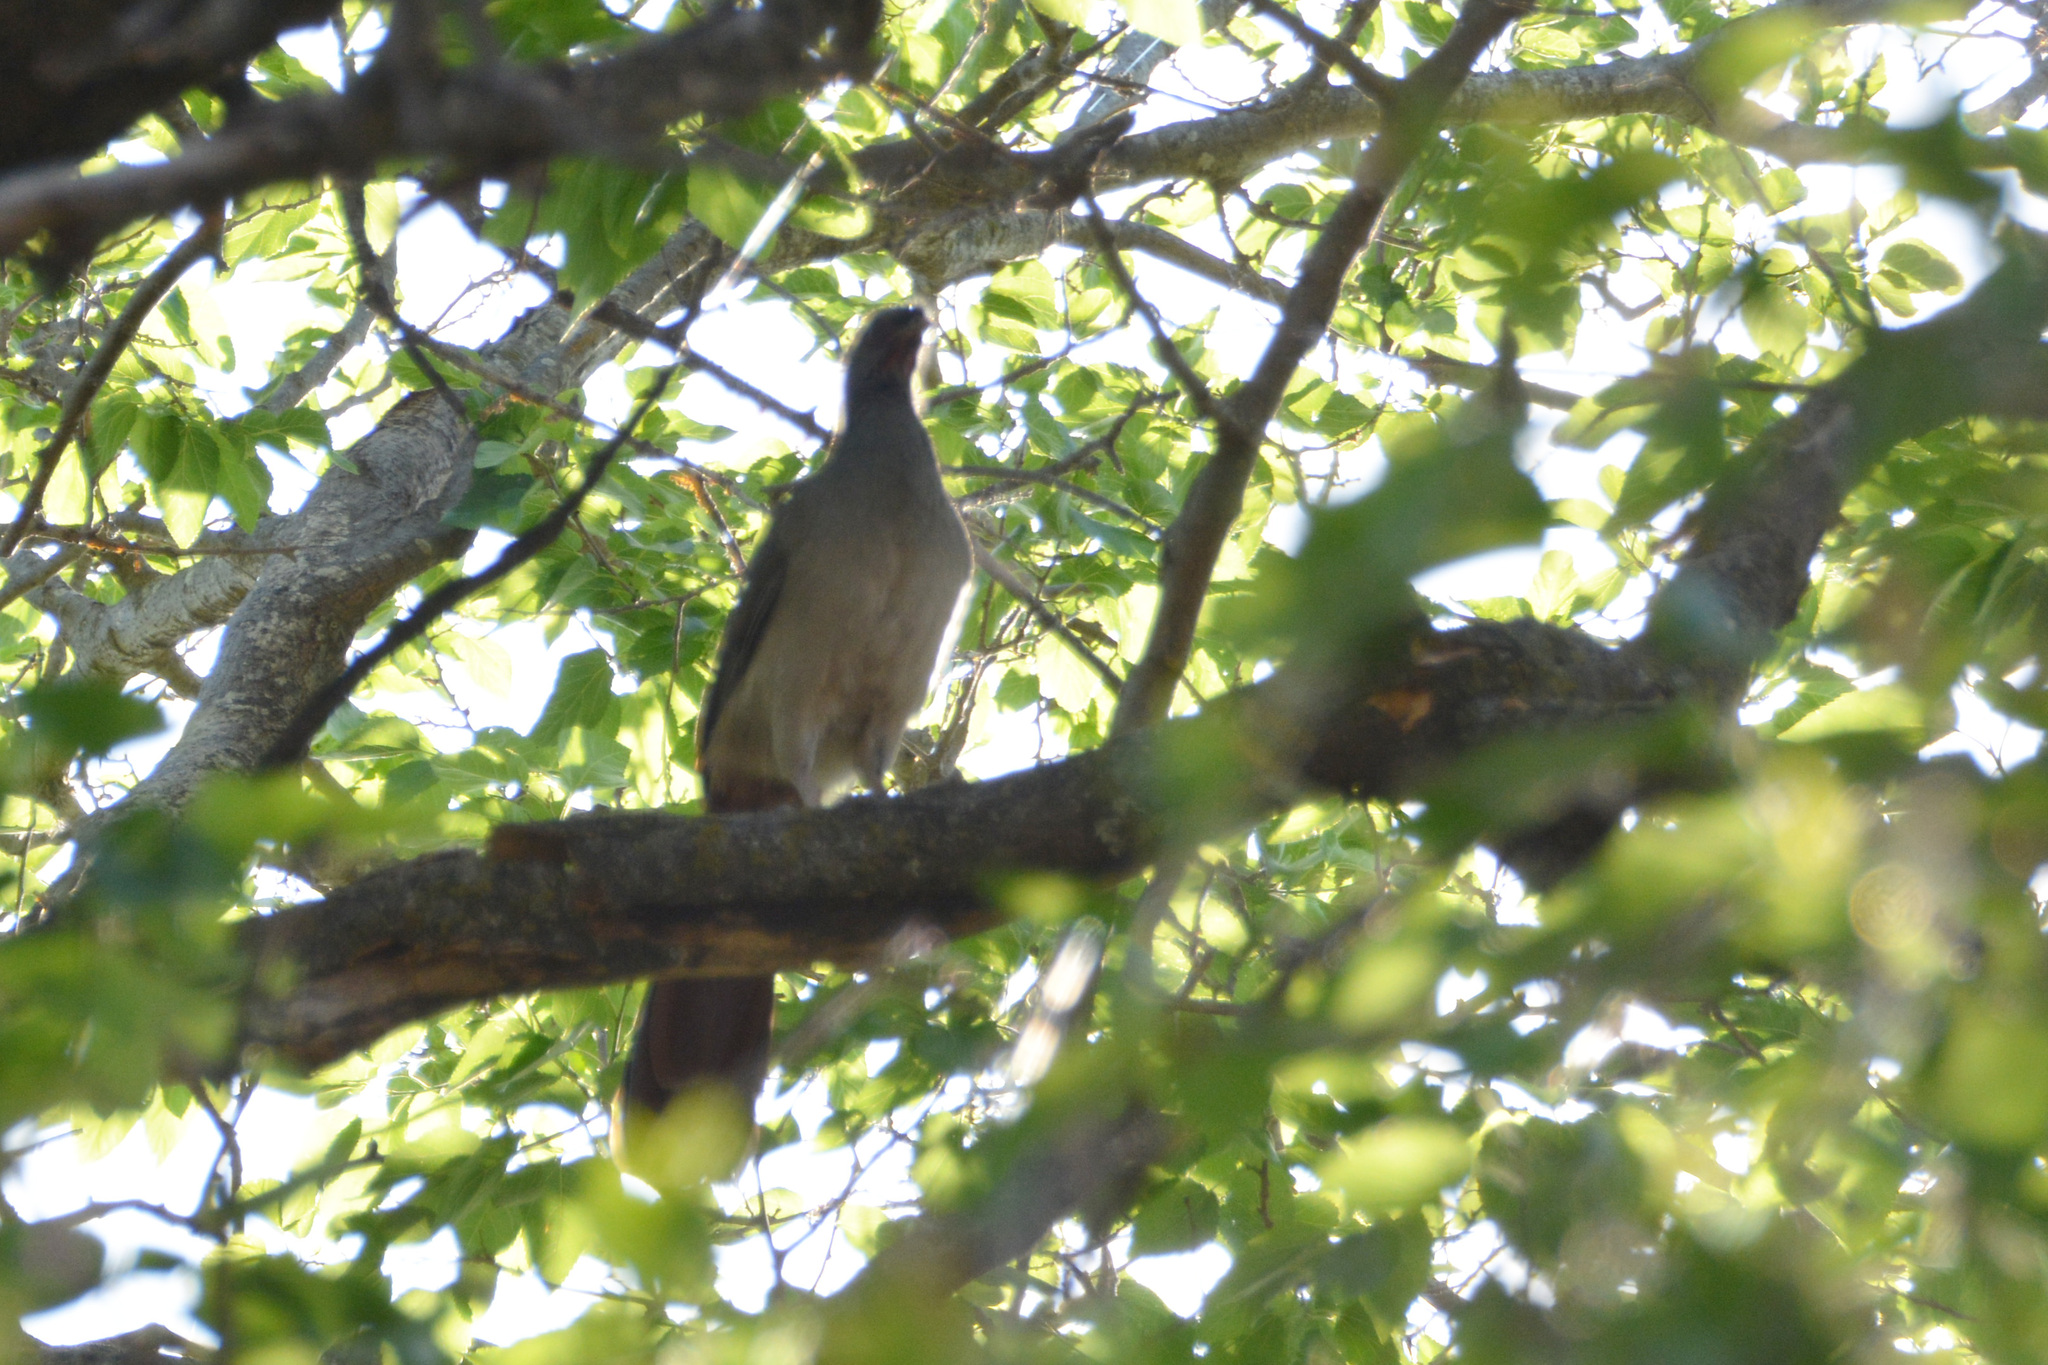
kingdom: Animalia
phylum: Chordata
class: Aves
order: Galliformes
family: Cracidae
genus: Ortalis
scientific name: Ortalis canicollis
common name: Chaco chachalaca
